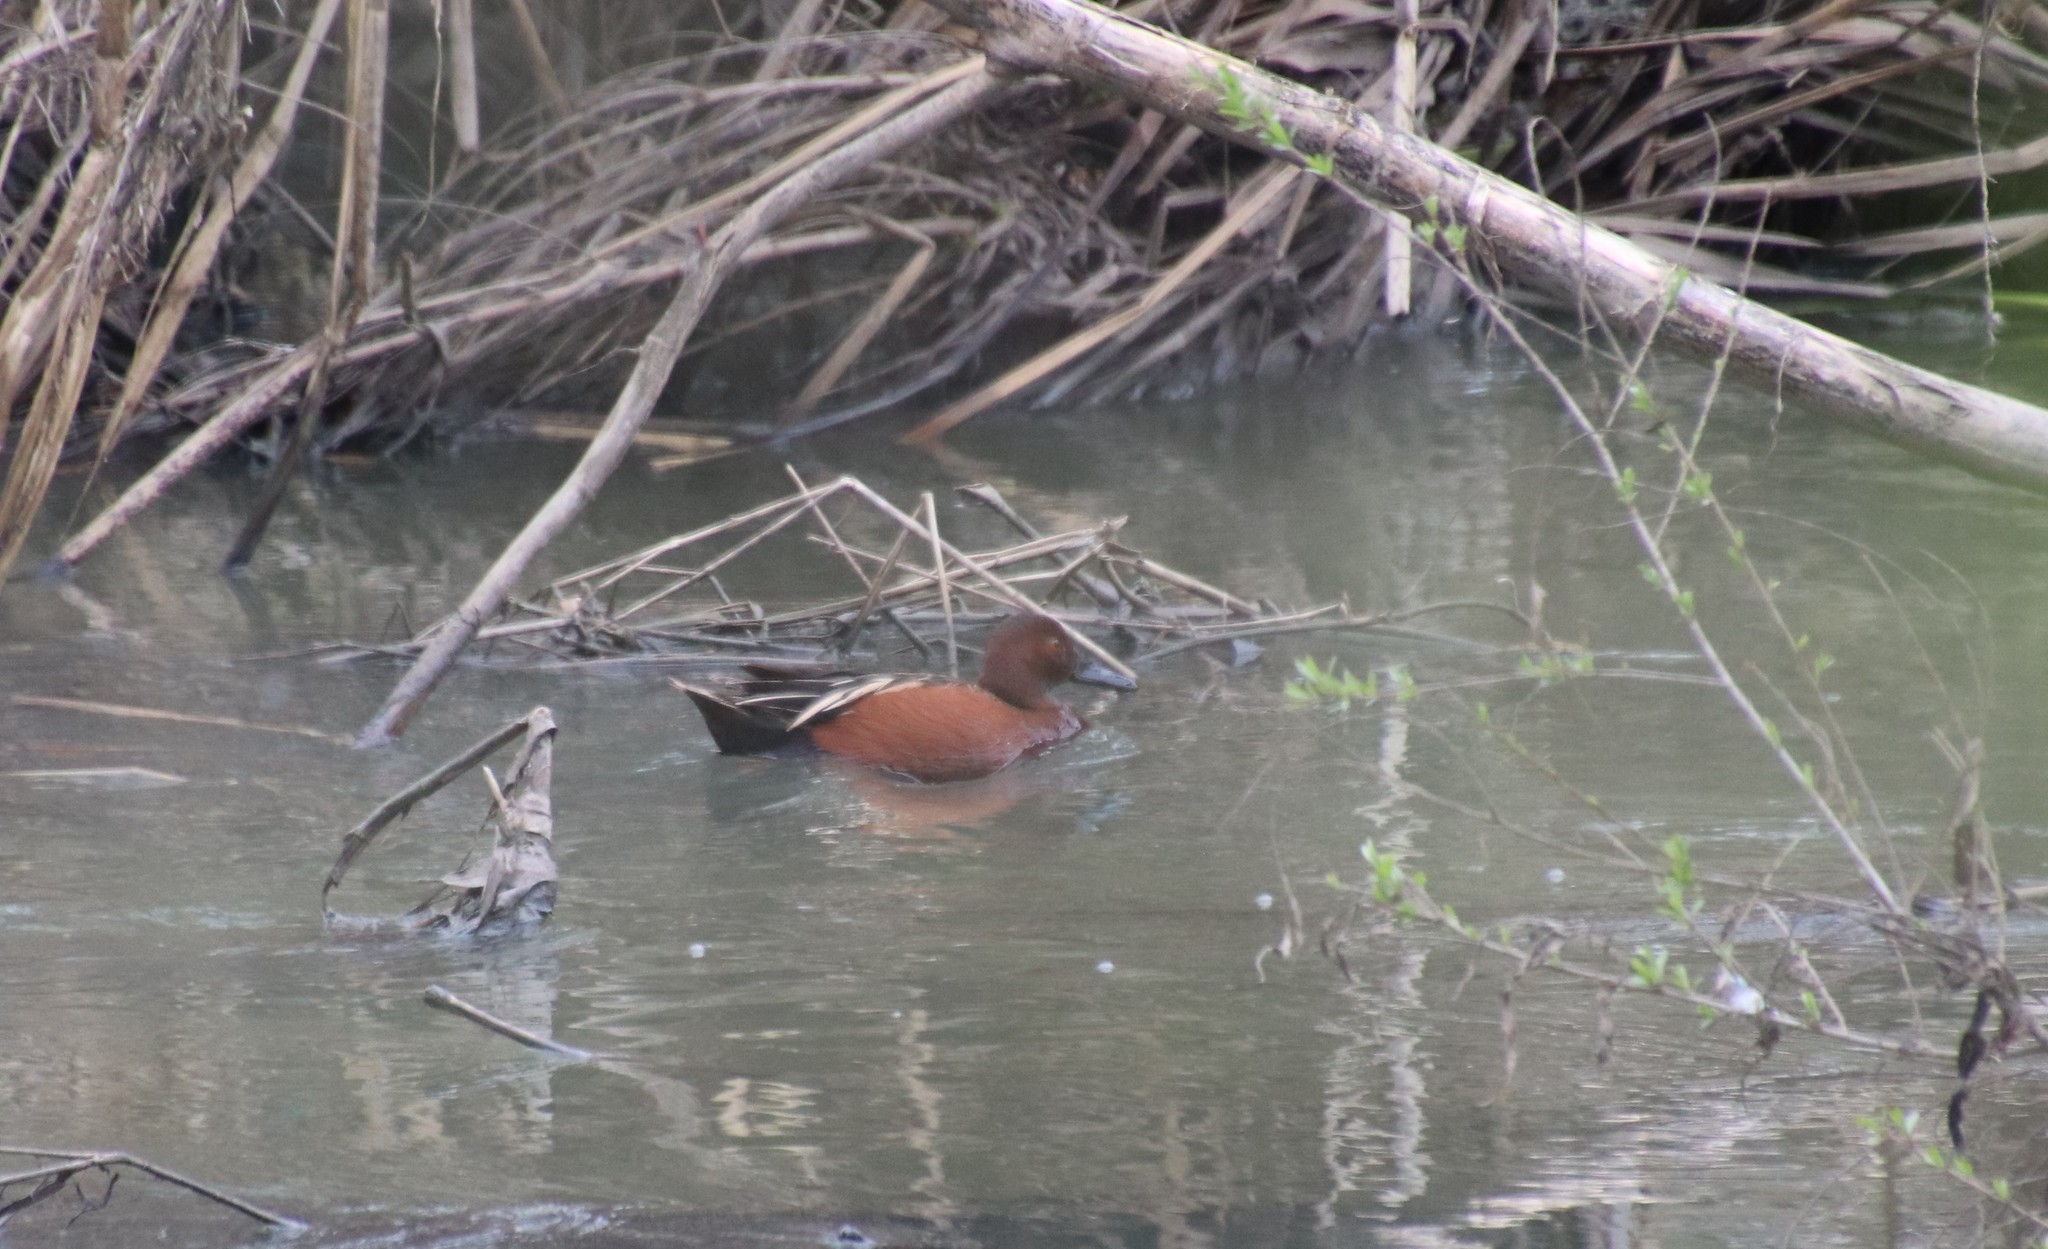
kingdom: Animalia
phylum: Chordata
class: Aves
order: Anseriformes
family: Anatidae
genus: Spatula
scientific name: Spatula cyanoptera
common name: Cinnamon teal
